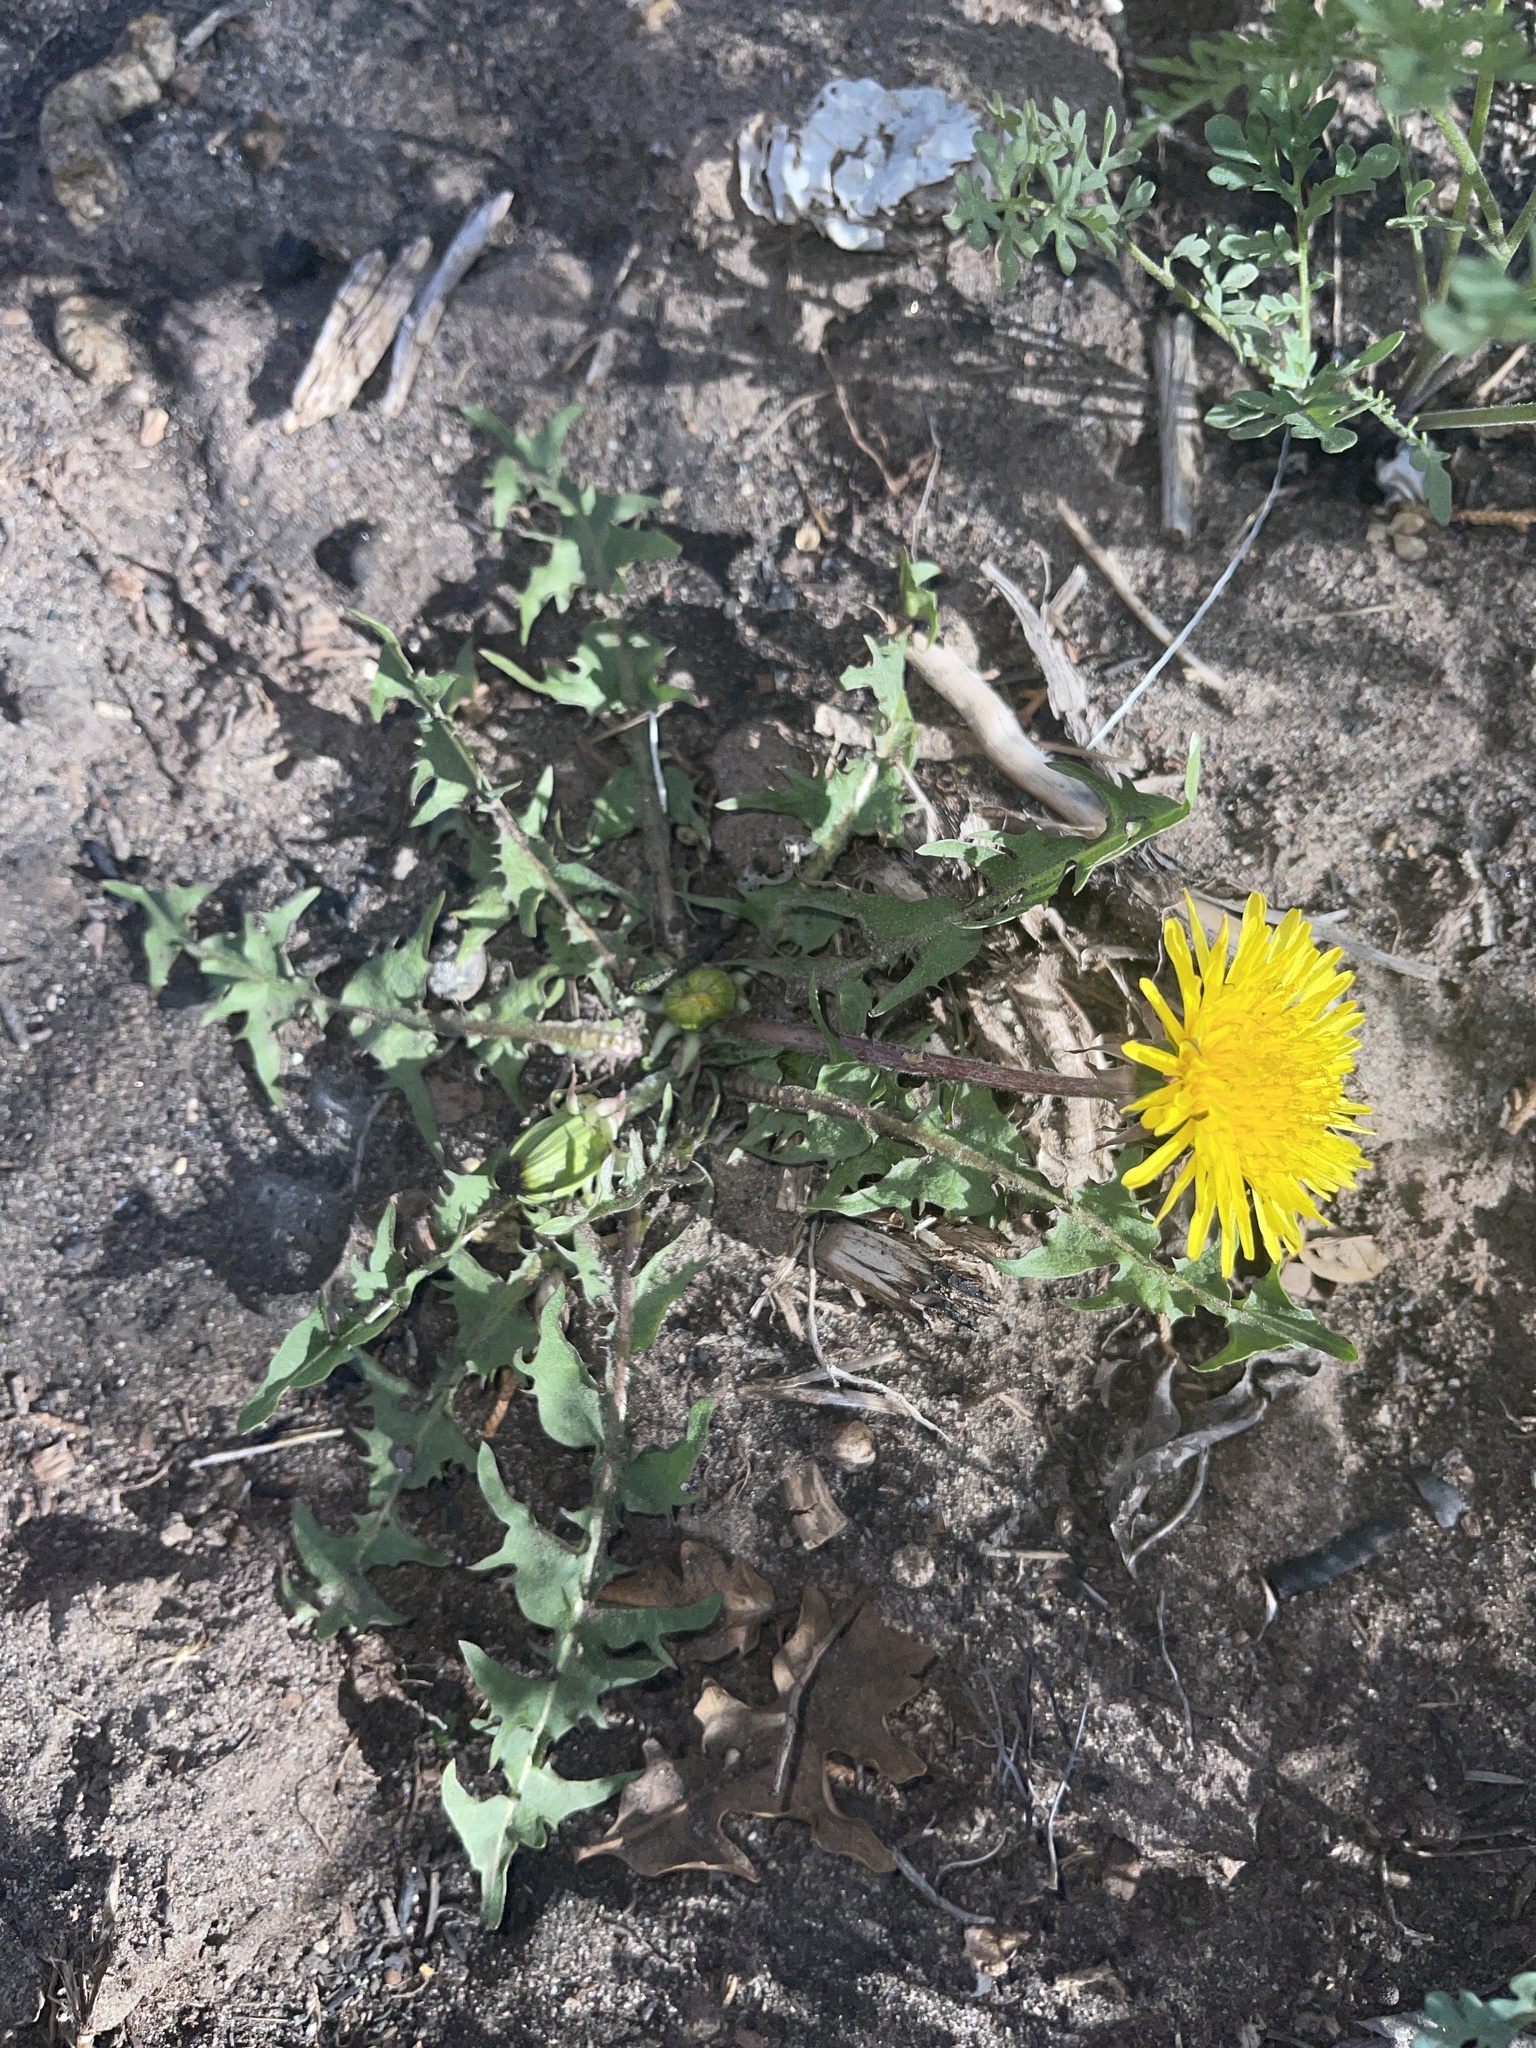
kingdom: Plantae
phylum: Tracheophyta
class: Magnoliopsida
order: Asterales
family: Asteraceae
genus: Taraxacum
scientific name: Taraxacum officinale
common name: Common dandelion
